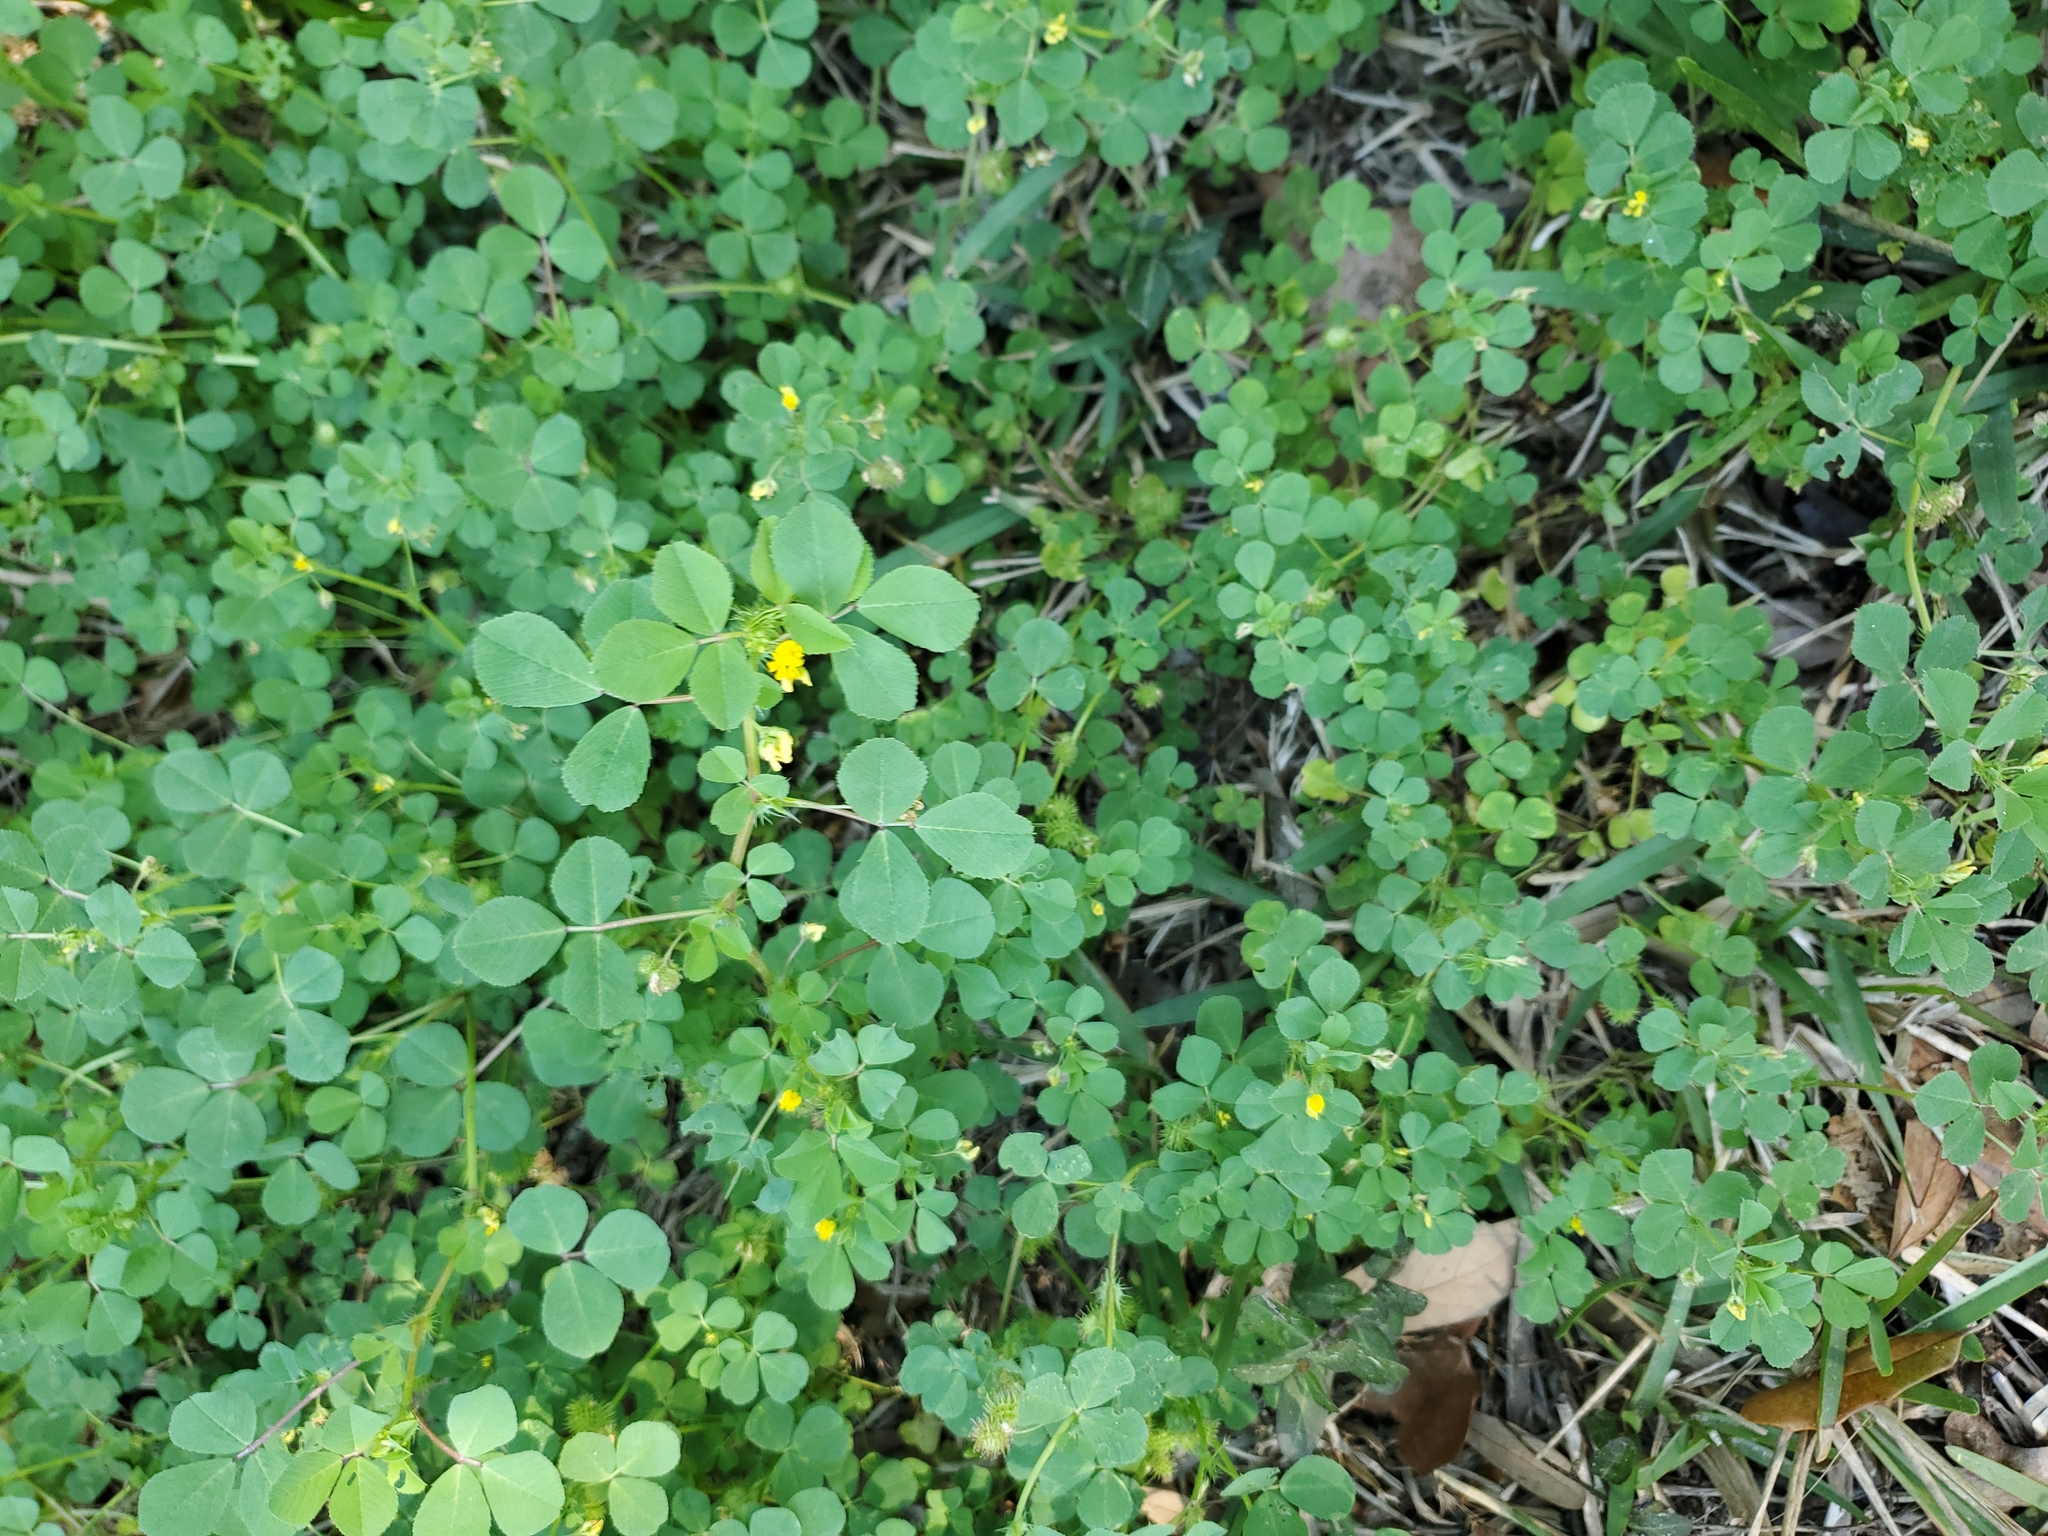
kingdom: Plantae
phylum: Tracheophyta
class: Magnoliopsida
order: Fabales
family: Fabaceae
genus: Medicago
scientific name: Medicago polymorpha
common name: Burclover
